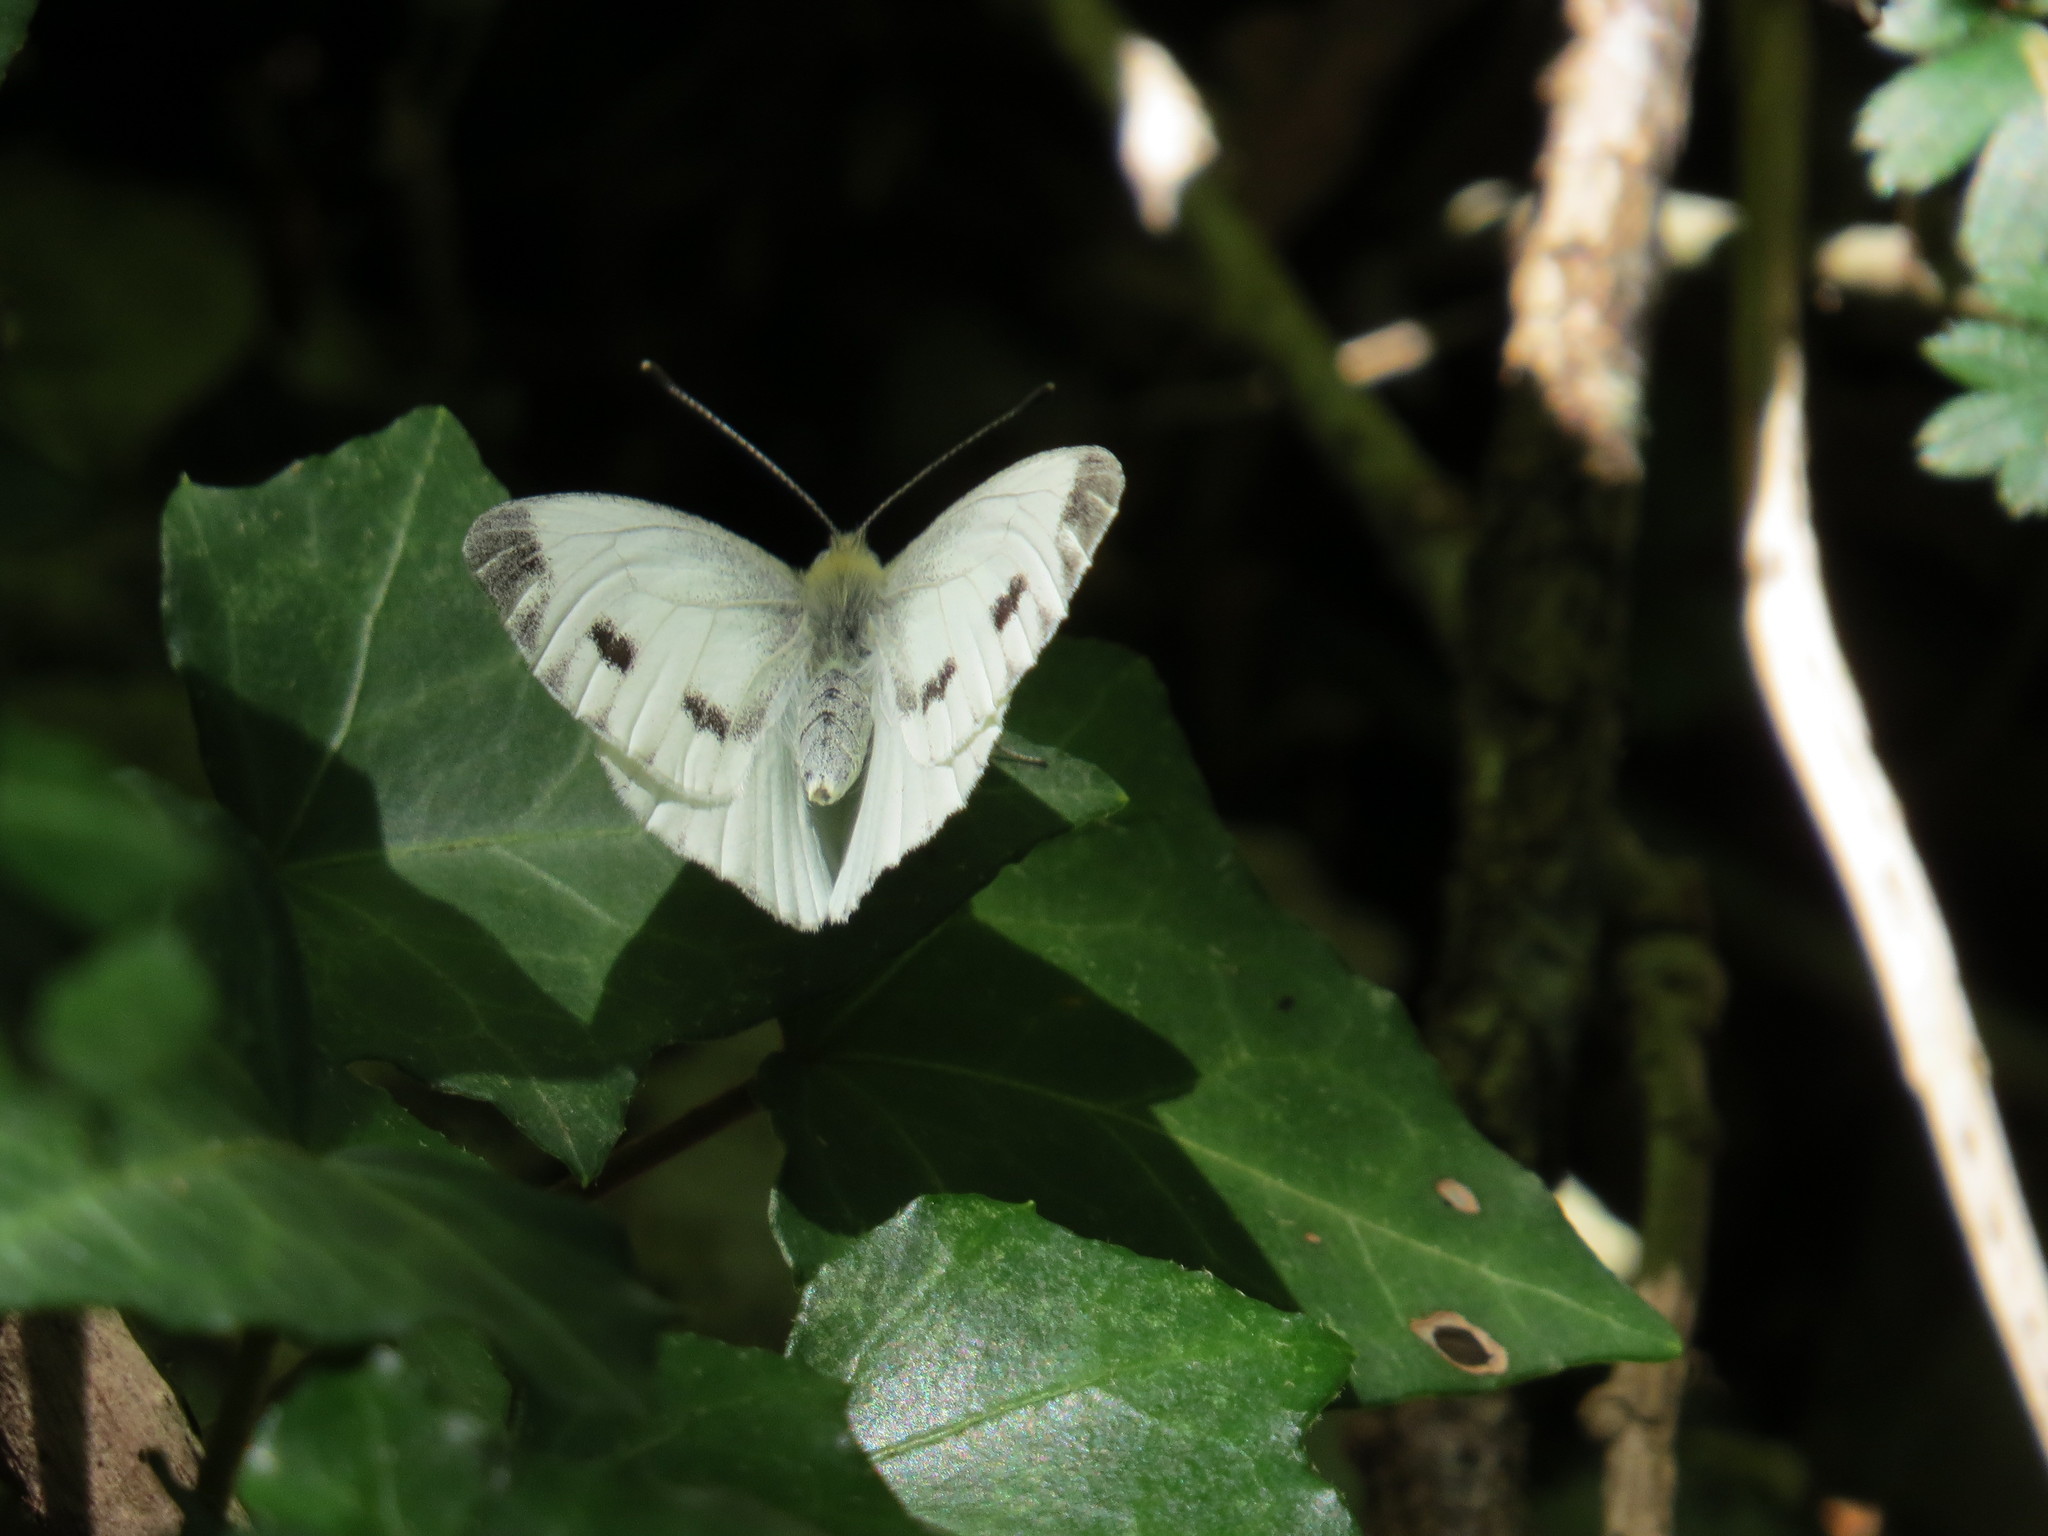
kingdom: Animalia
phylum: Arthropoda
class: Insecta
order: Lepidoptera
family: Pieridae
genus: Pieris
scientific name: Pieris napi
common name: Green-veined white
